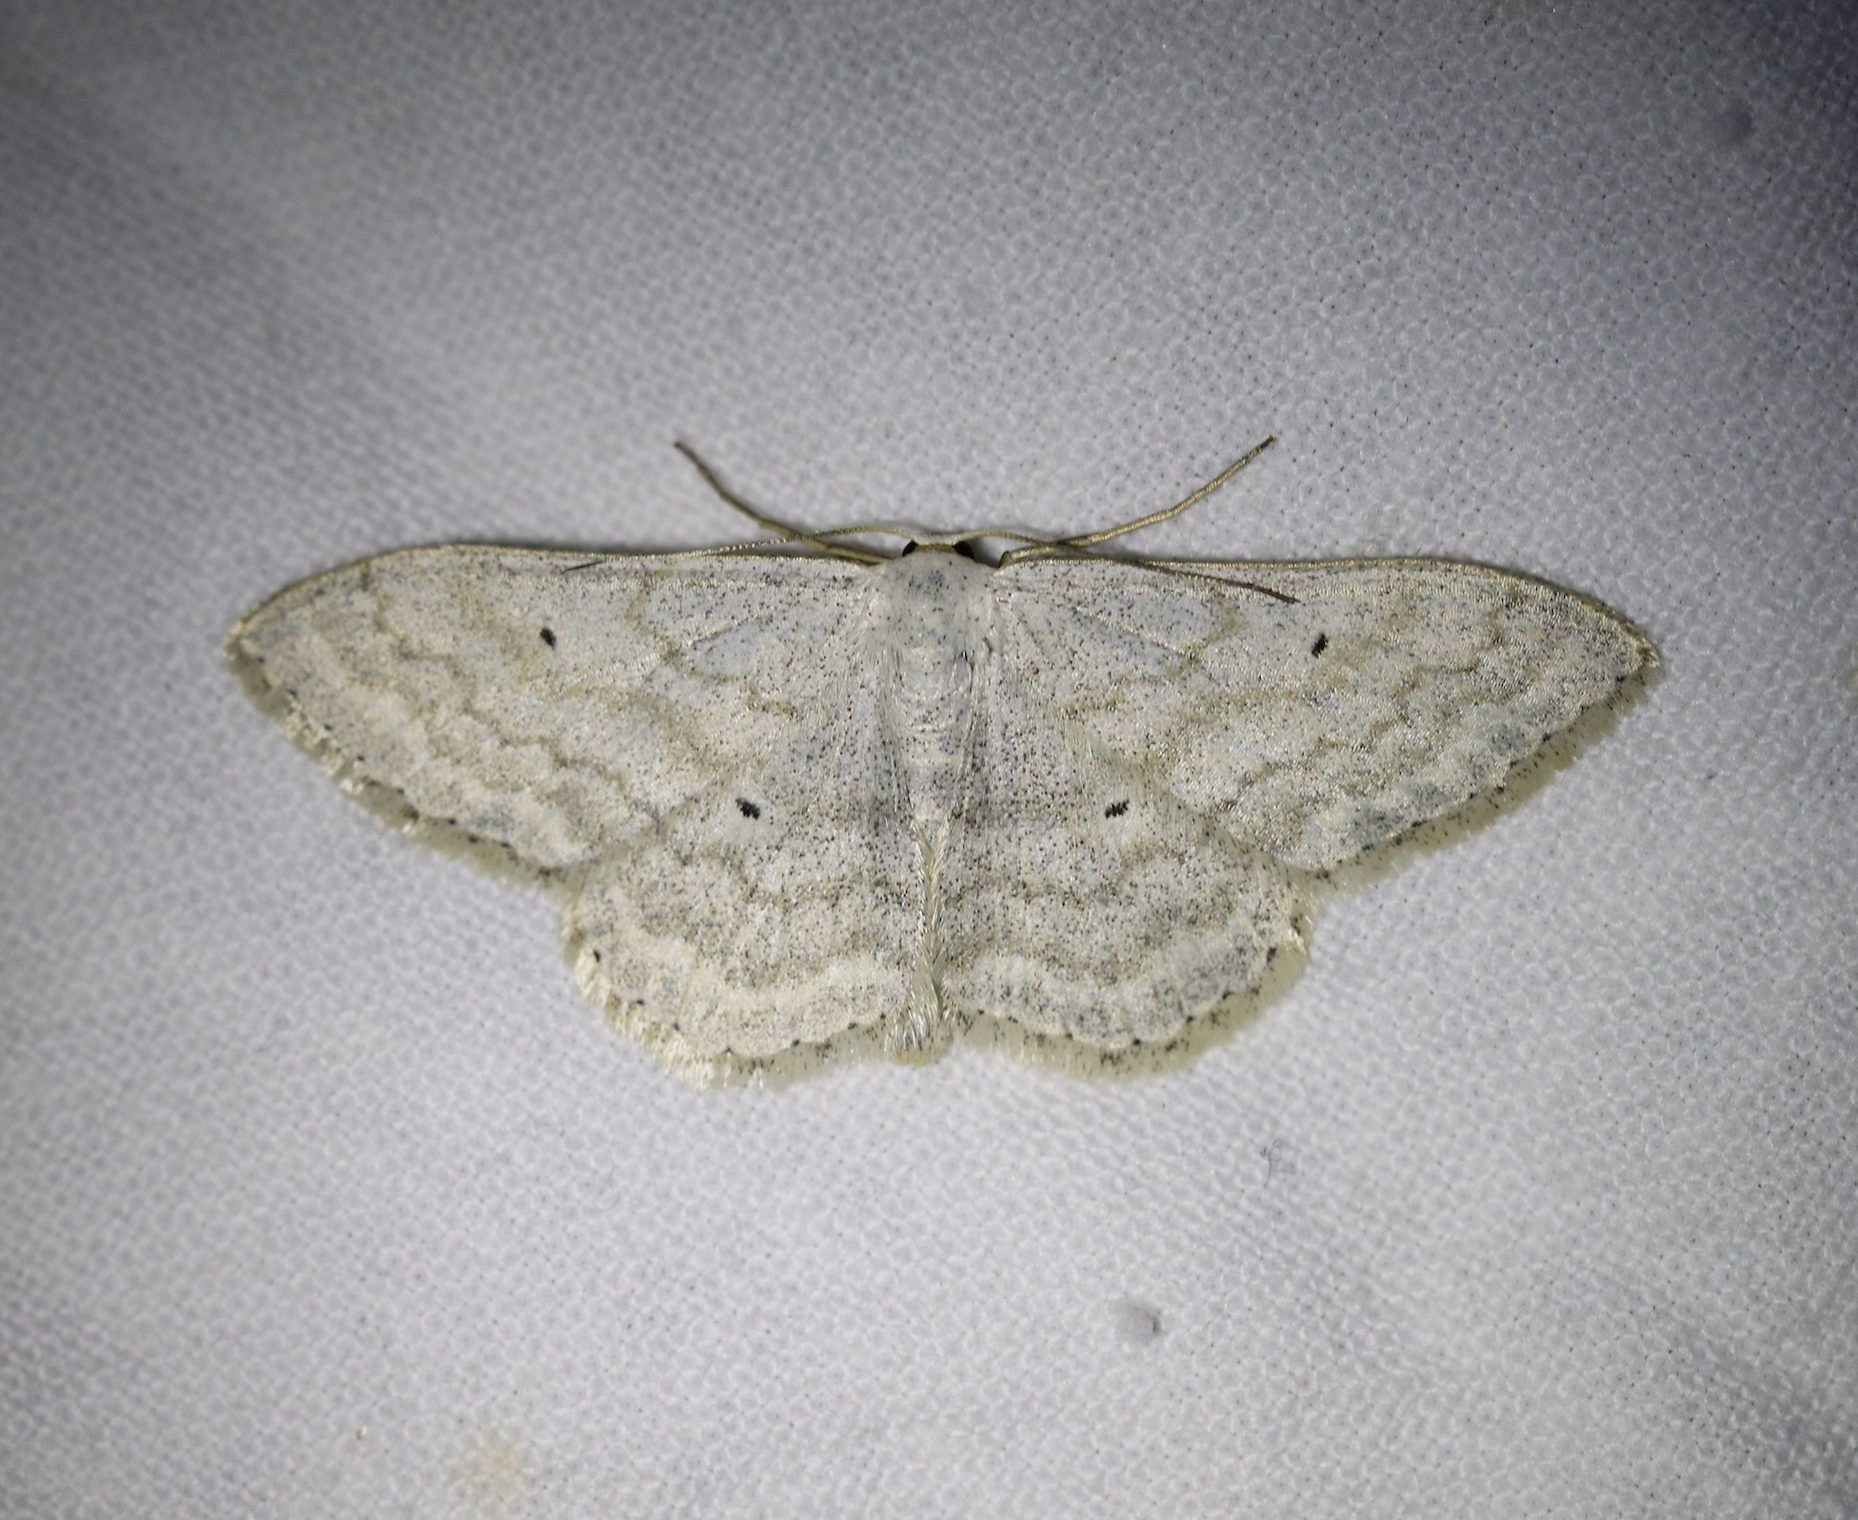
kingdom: Animalia
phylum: Arthropoda
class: Insecta
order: Lepidoptera
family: Geometridae
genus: Scopula
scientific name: Scopula incanata
